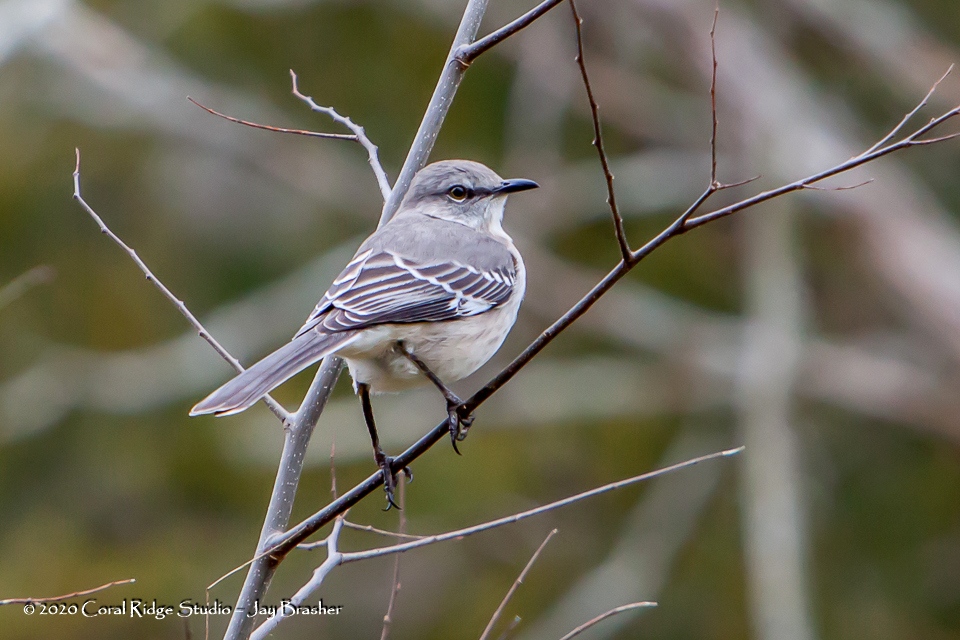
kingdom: Animalia
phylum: Chordata
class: Aves
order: Passeriformes
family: Mimidae
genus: Mimus
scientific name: Mimus polyglottos
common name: Northern mockingbird
